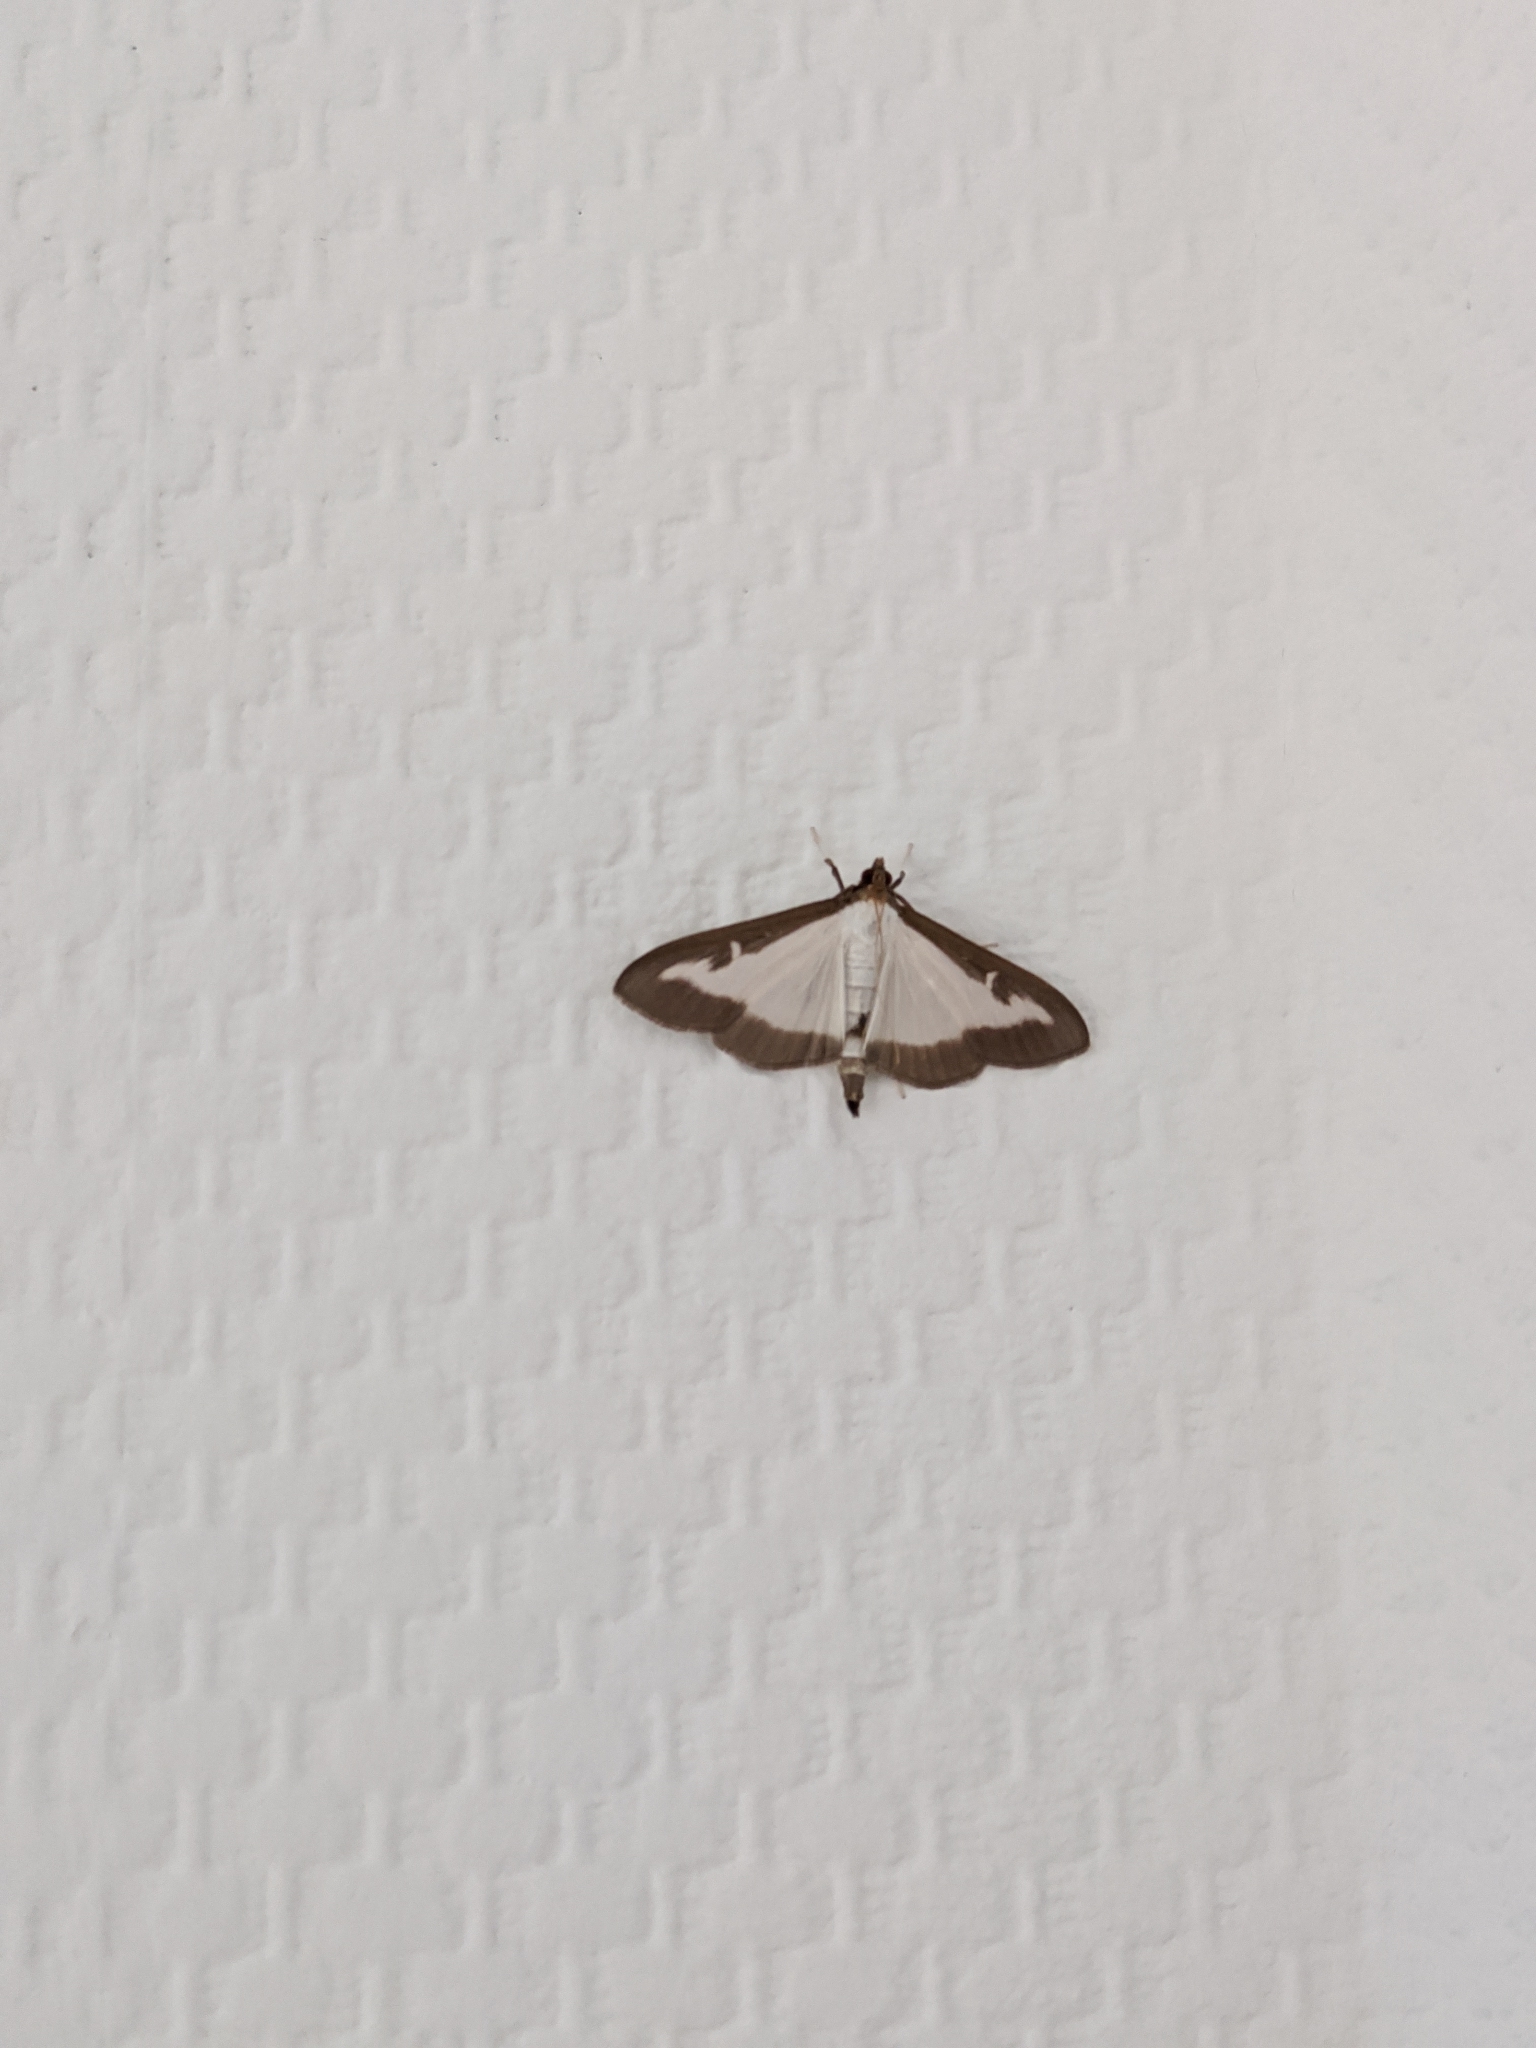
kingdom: Animalia
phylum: Arthropoda
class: Insecta
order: Lepidoptera
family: Crambidae
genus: Cydalima
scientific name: Cydalima perspectalis
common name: Box tree moth
